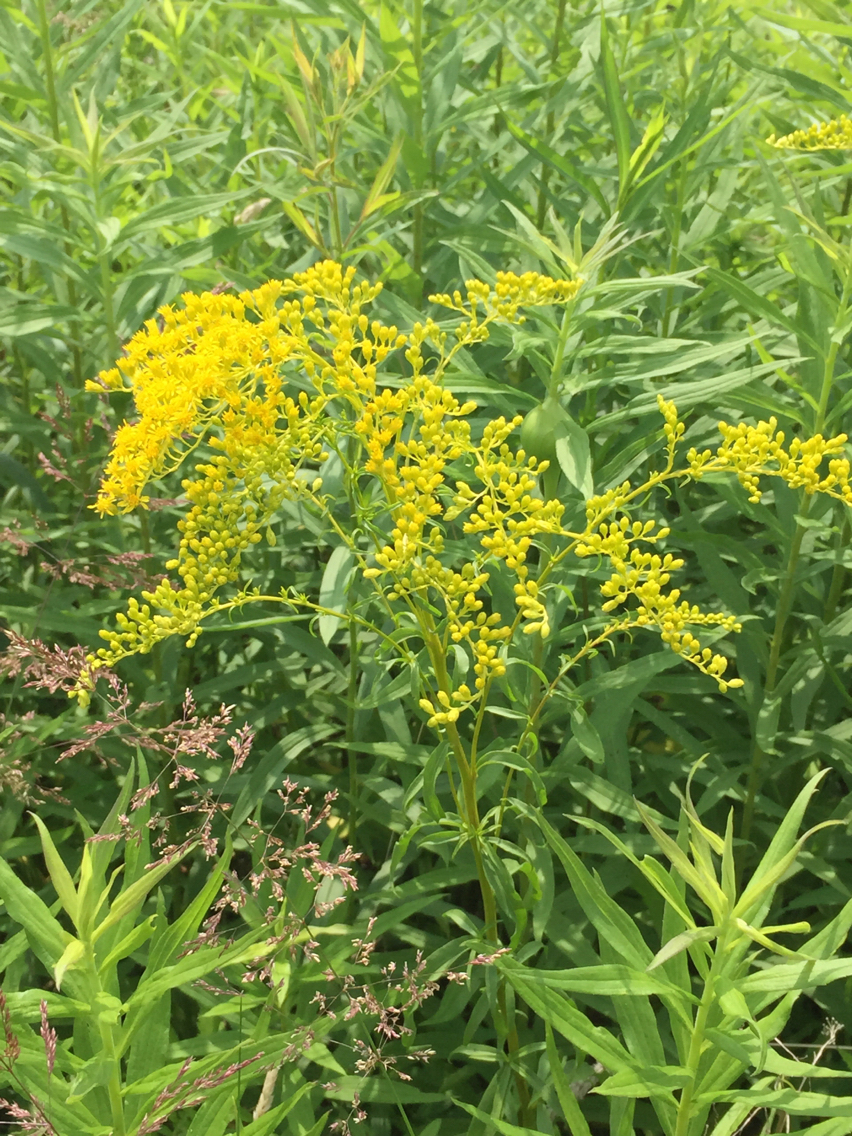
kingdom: Plantae
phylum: Tracheophyta
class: Magnoliopsida
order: Asterales
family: Asteraceae
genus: Solidago
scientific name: Solidago juncea
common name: Early goldenrod
